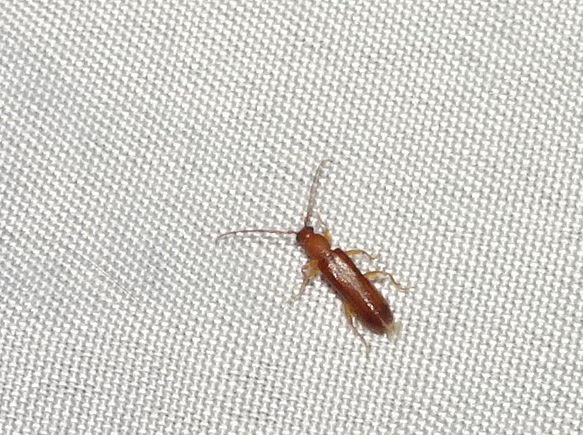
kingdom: Animalia
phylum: Arthropoda
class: Insecta
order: Coleoptera
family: Cerambycidae
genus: Smodicum
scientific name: Smodicum cucujiforme
